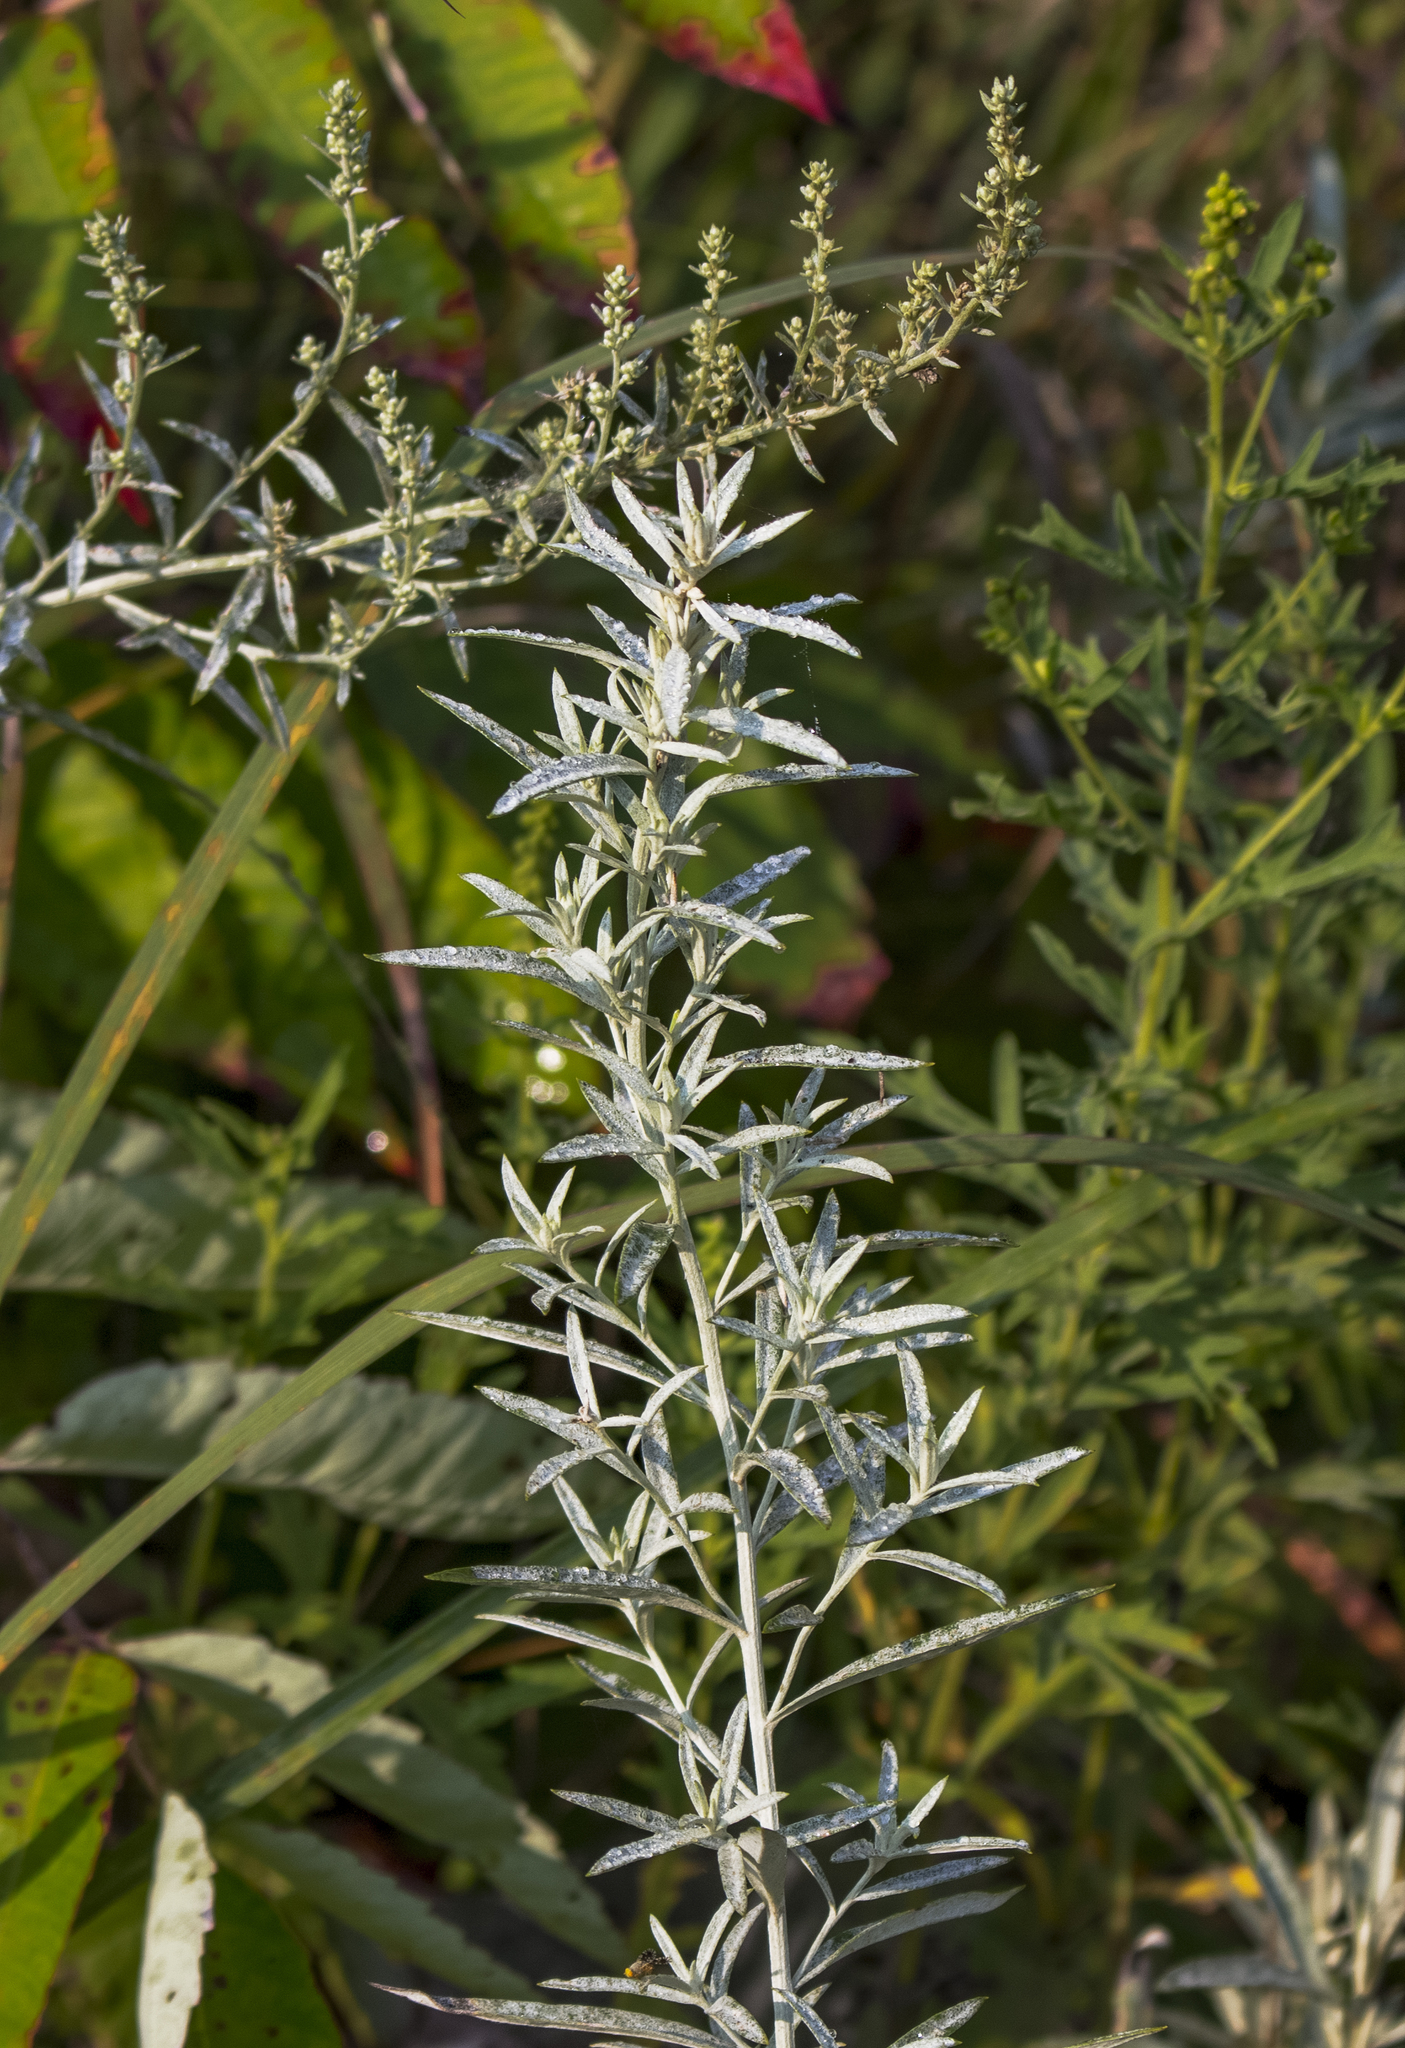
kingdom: Plantae
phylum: Tracheophyta
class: Magnoliopsida
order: Asterales
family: Asteraceae
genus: Artemisia
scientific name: Artemisia ludoviciana
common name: Western mugwort
